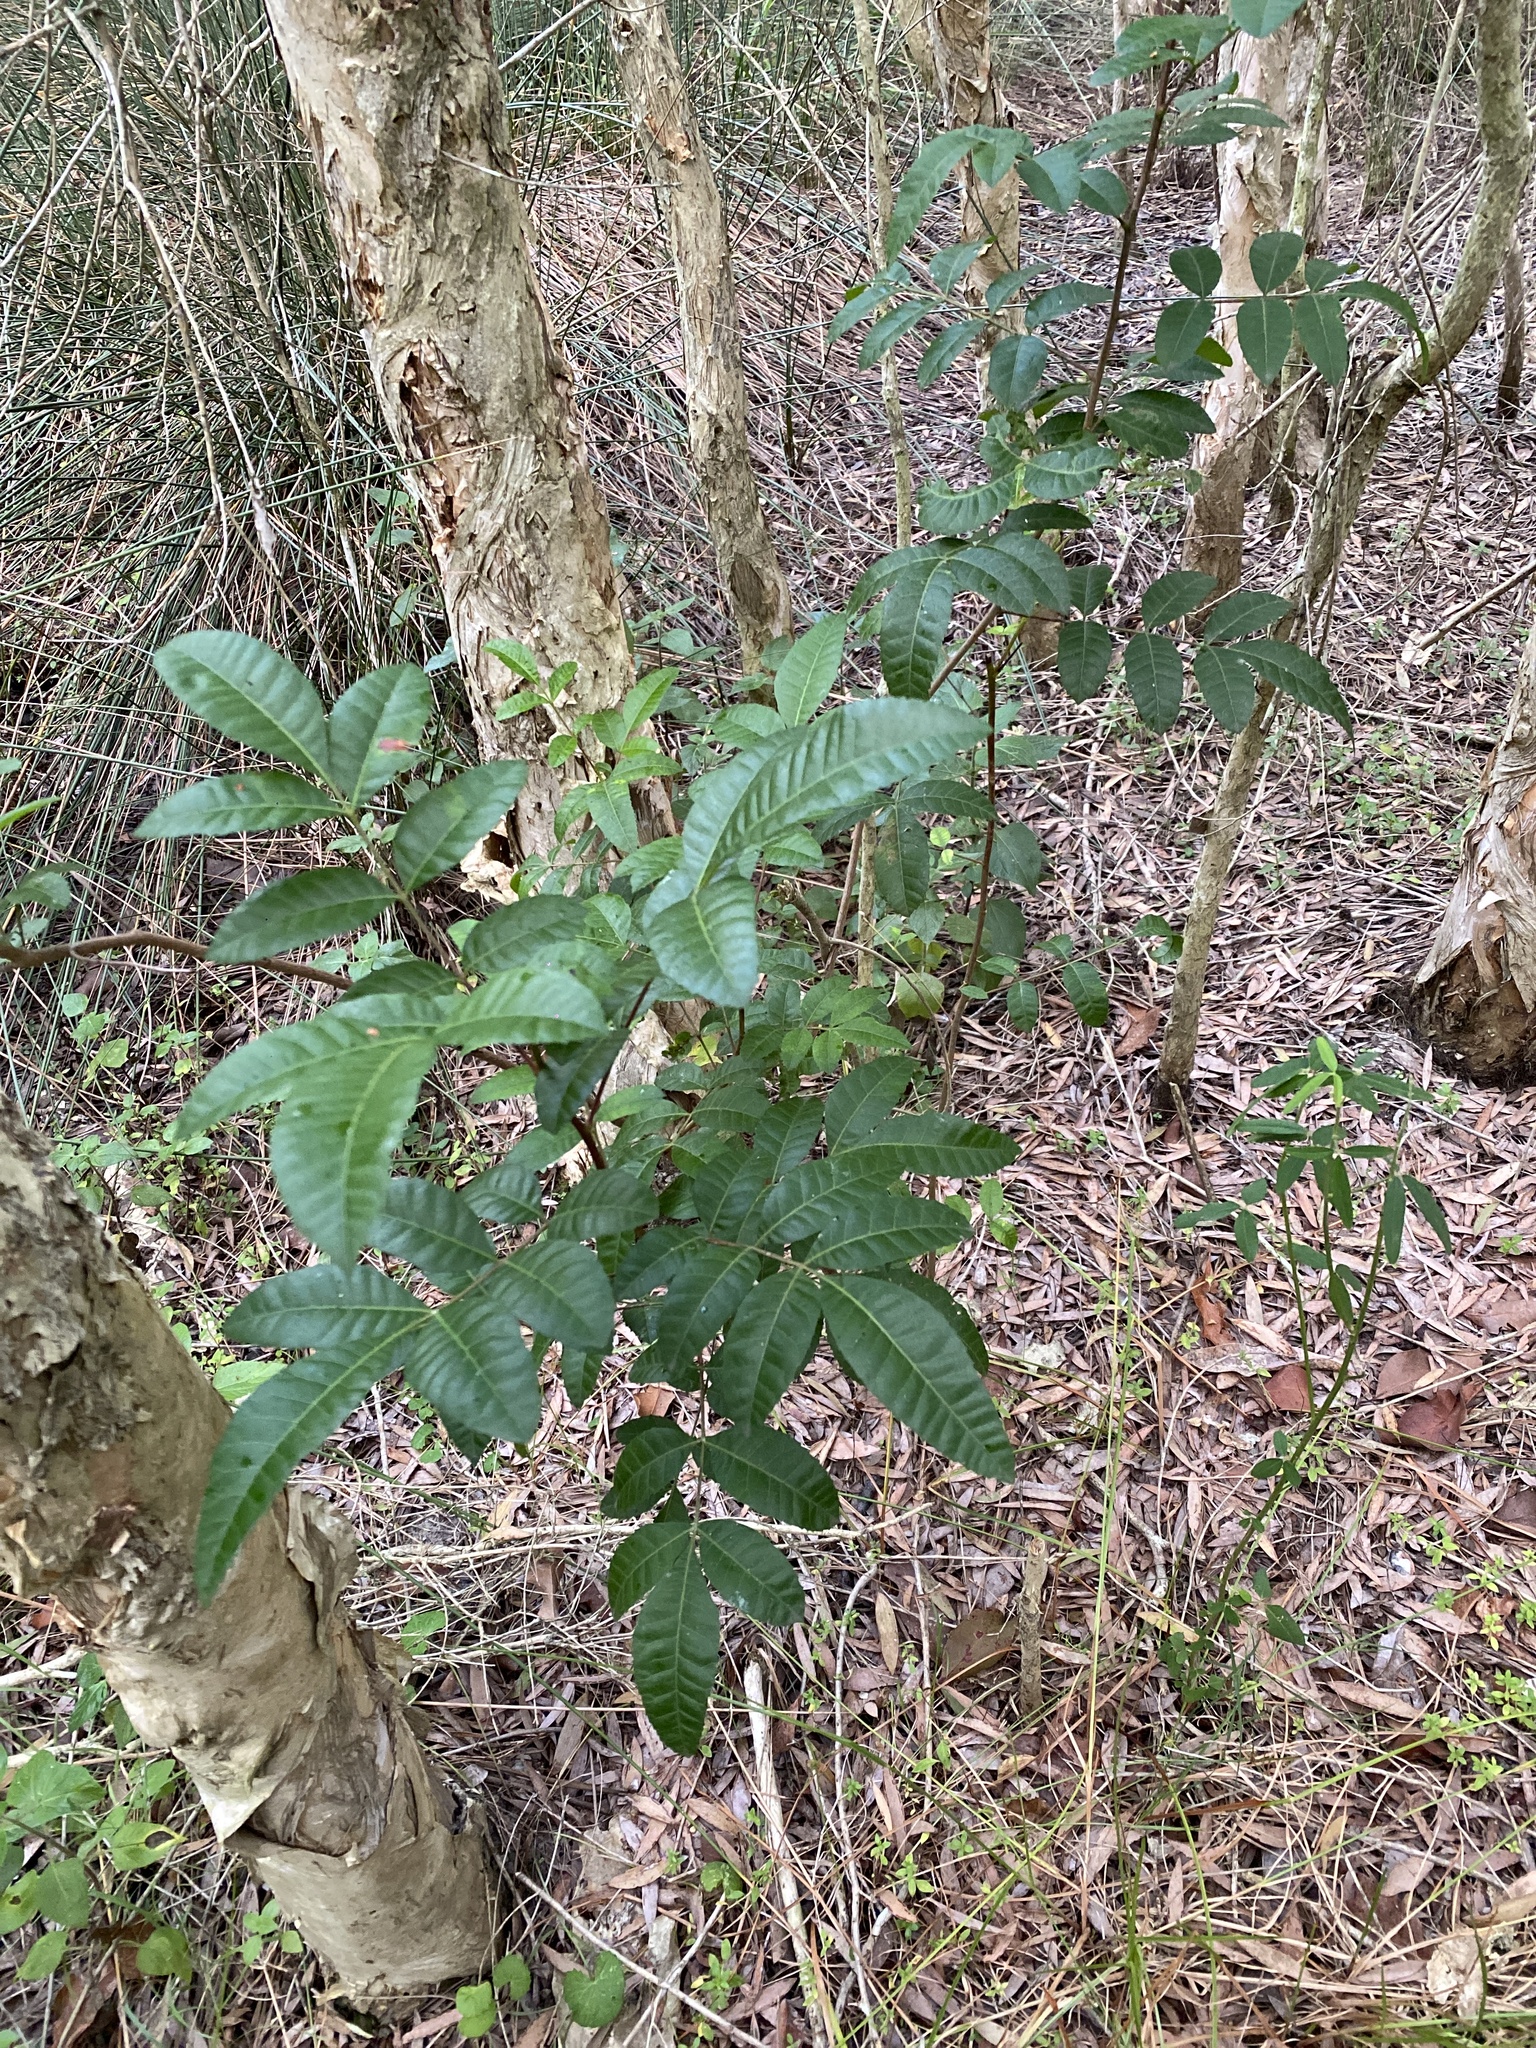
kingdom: Plantae
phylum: Tracheophyta
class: Magnoliopsida
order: Sapindales
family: Anacardiaceae
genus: Schinus
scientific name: Schinus terebinthifolia
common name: Brazilian peppertree
